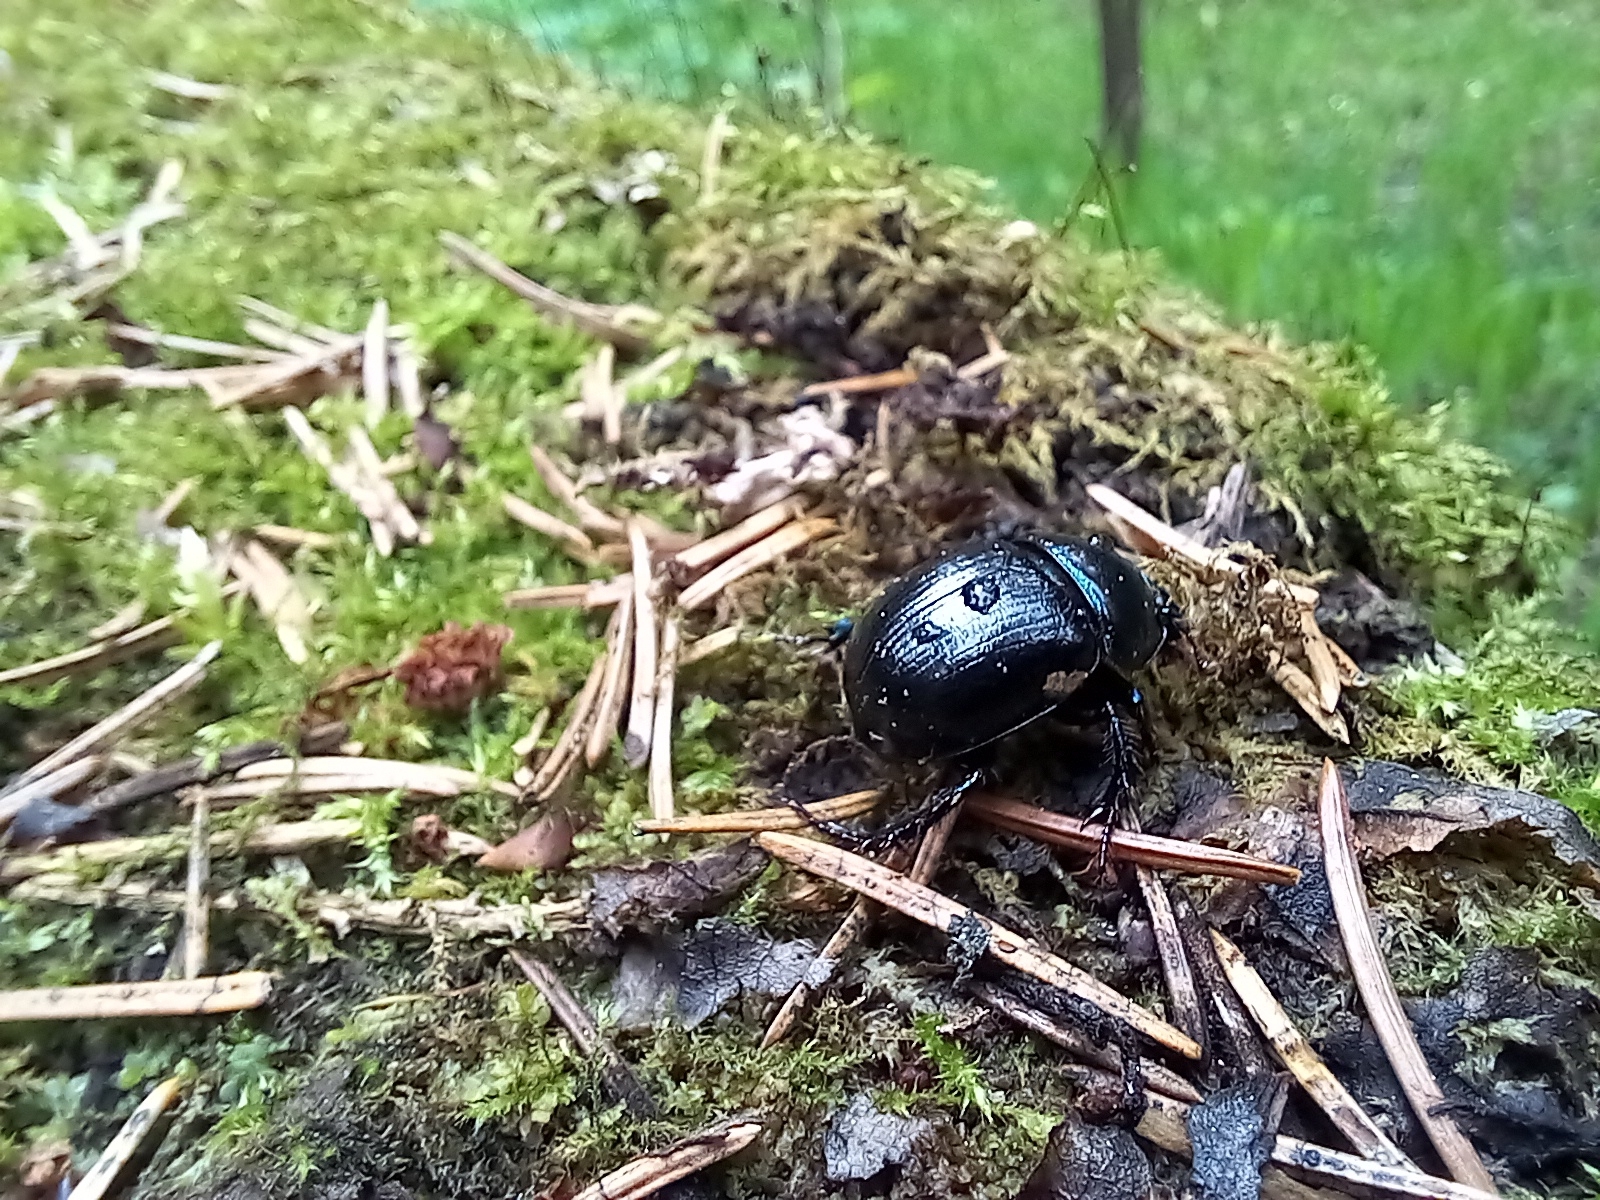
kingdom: Animalia
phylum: Arthropoda
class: Insecta
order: Coleoptera
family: Geotrupidae
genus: Anoplotrupes
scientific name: Anoplotrupes stercorosus
